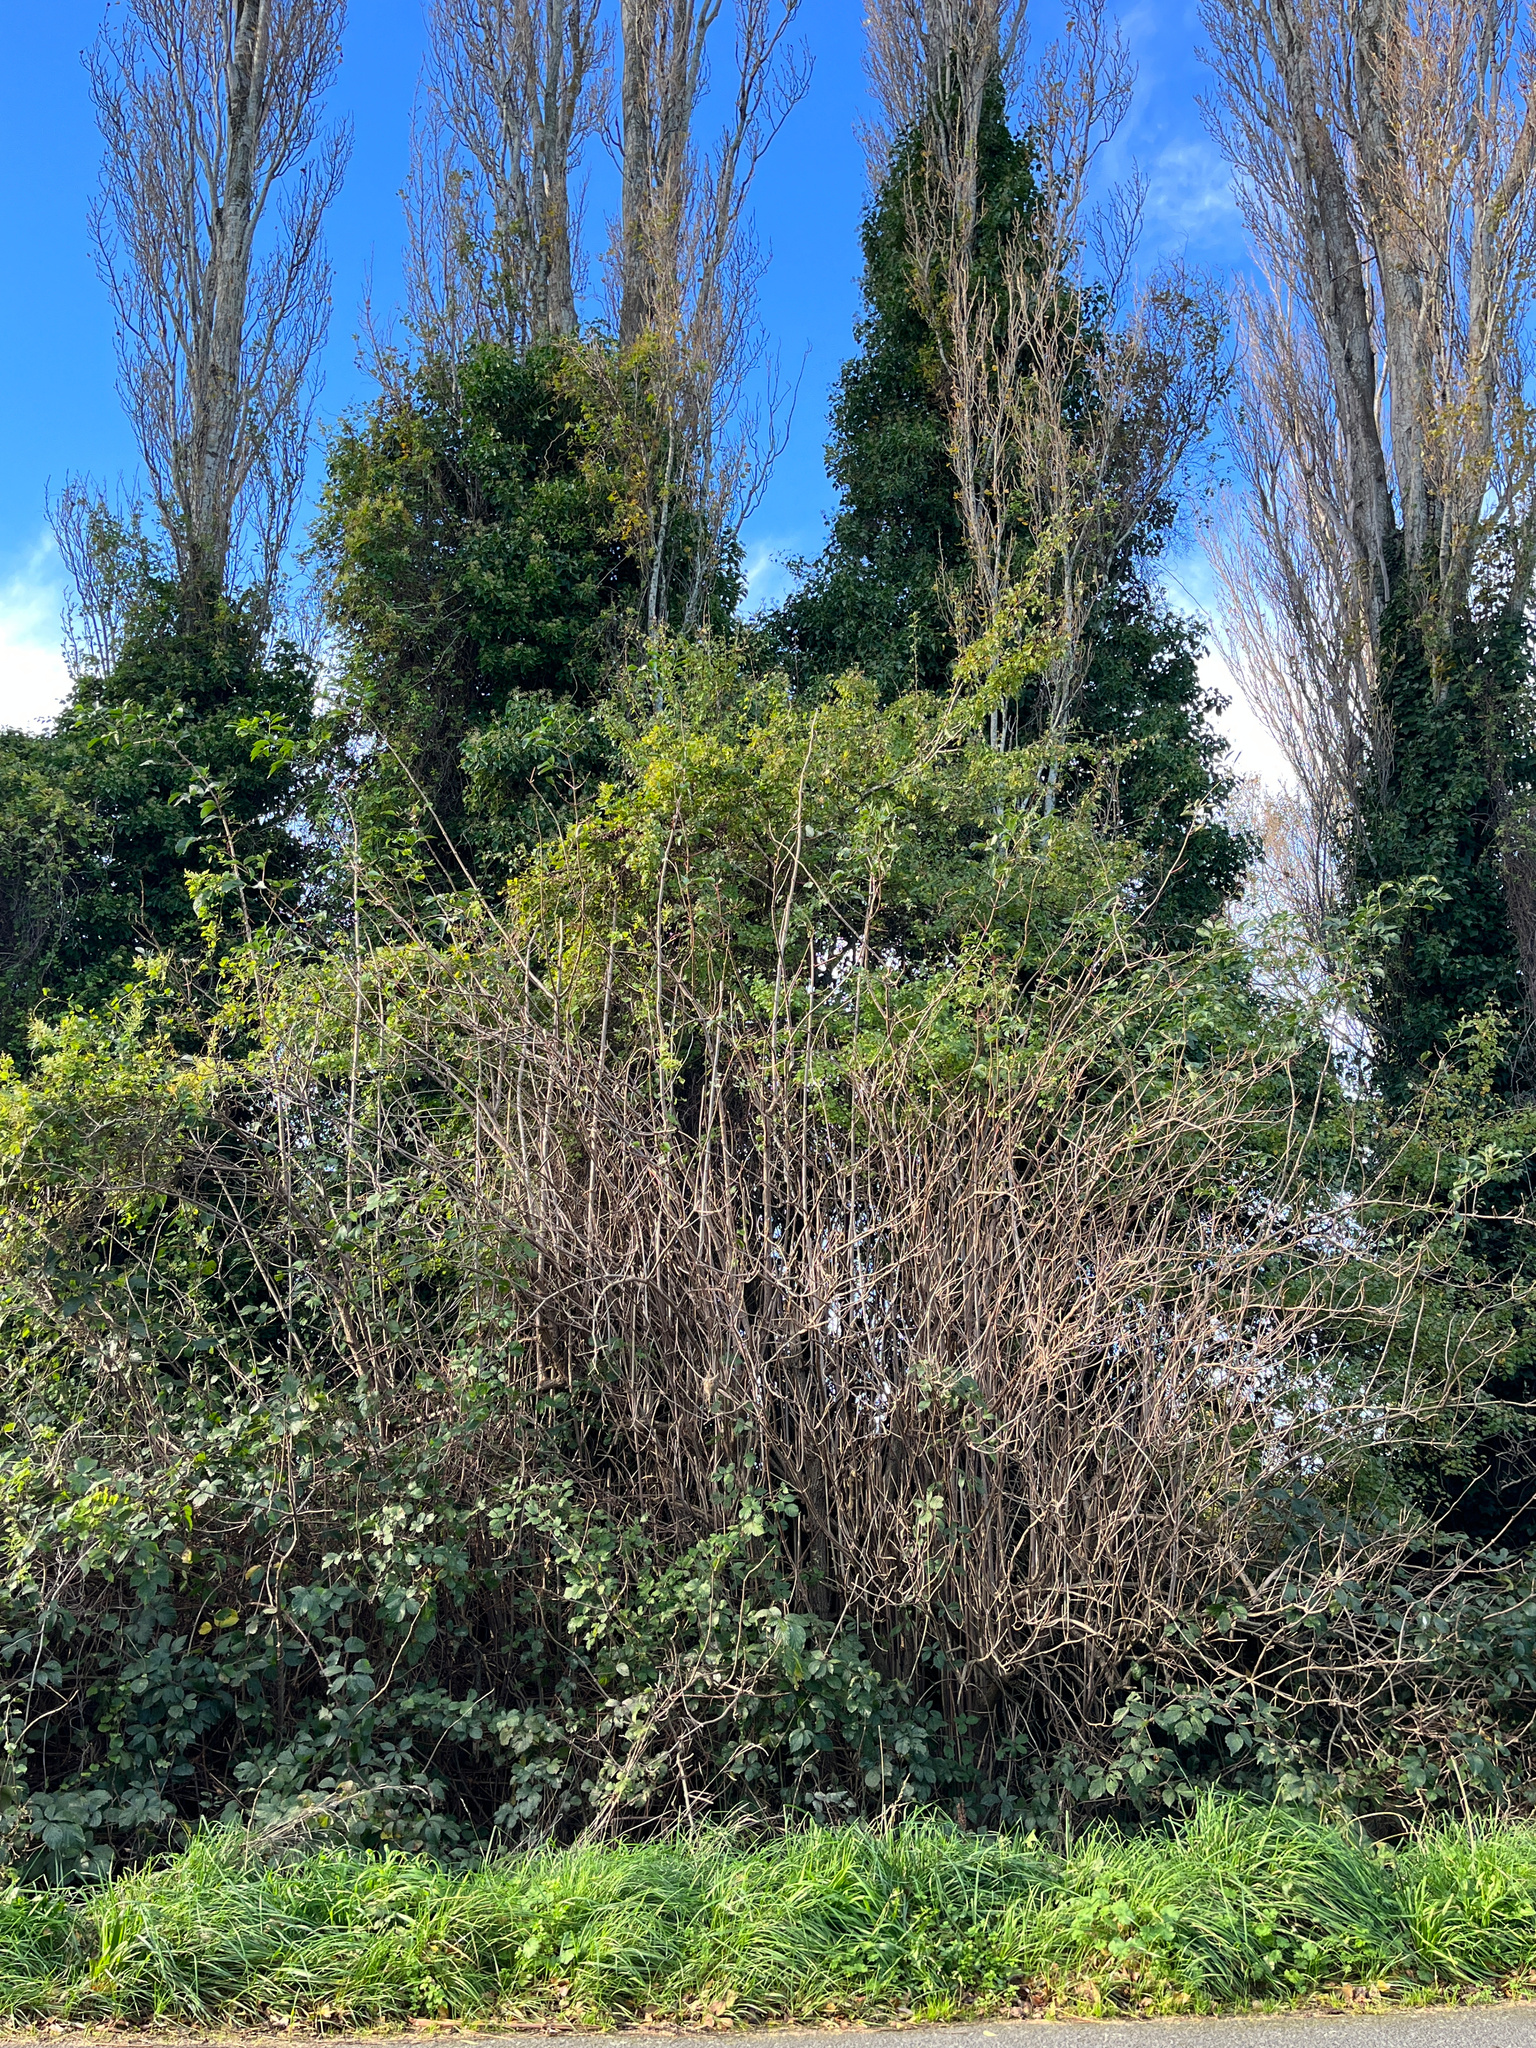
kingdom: Plantae
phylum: Tracheophyta
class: Magnoliopsida
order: Dipsacales
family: Viburnaceae
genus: Sambucus
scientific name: Sambucus nigra
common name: Elder
